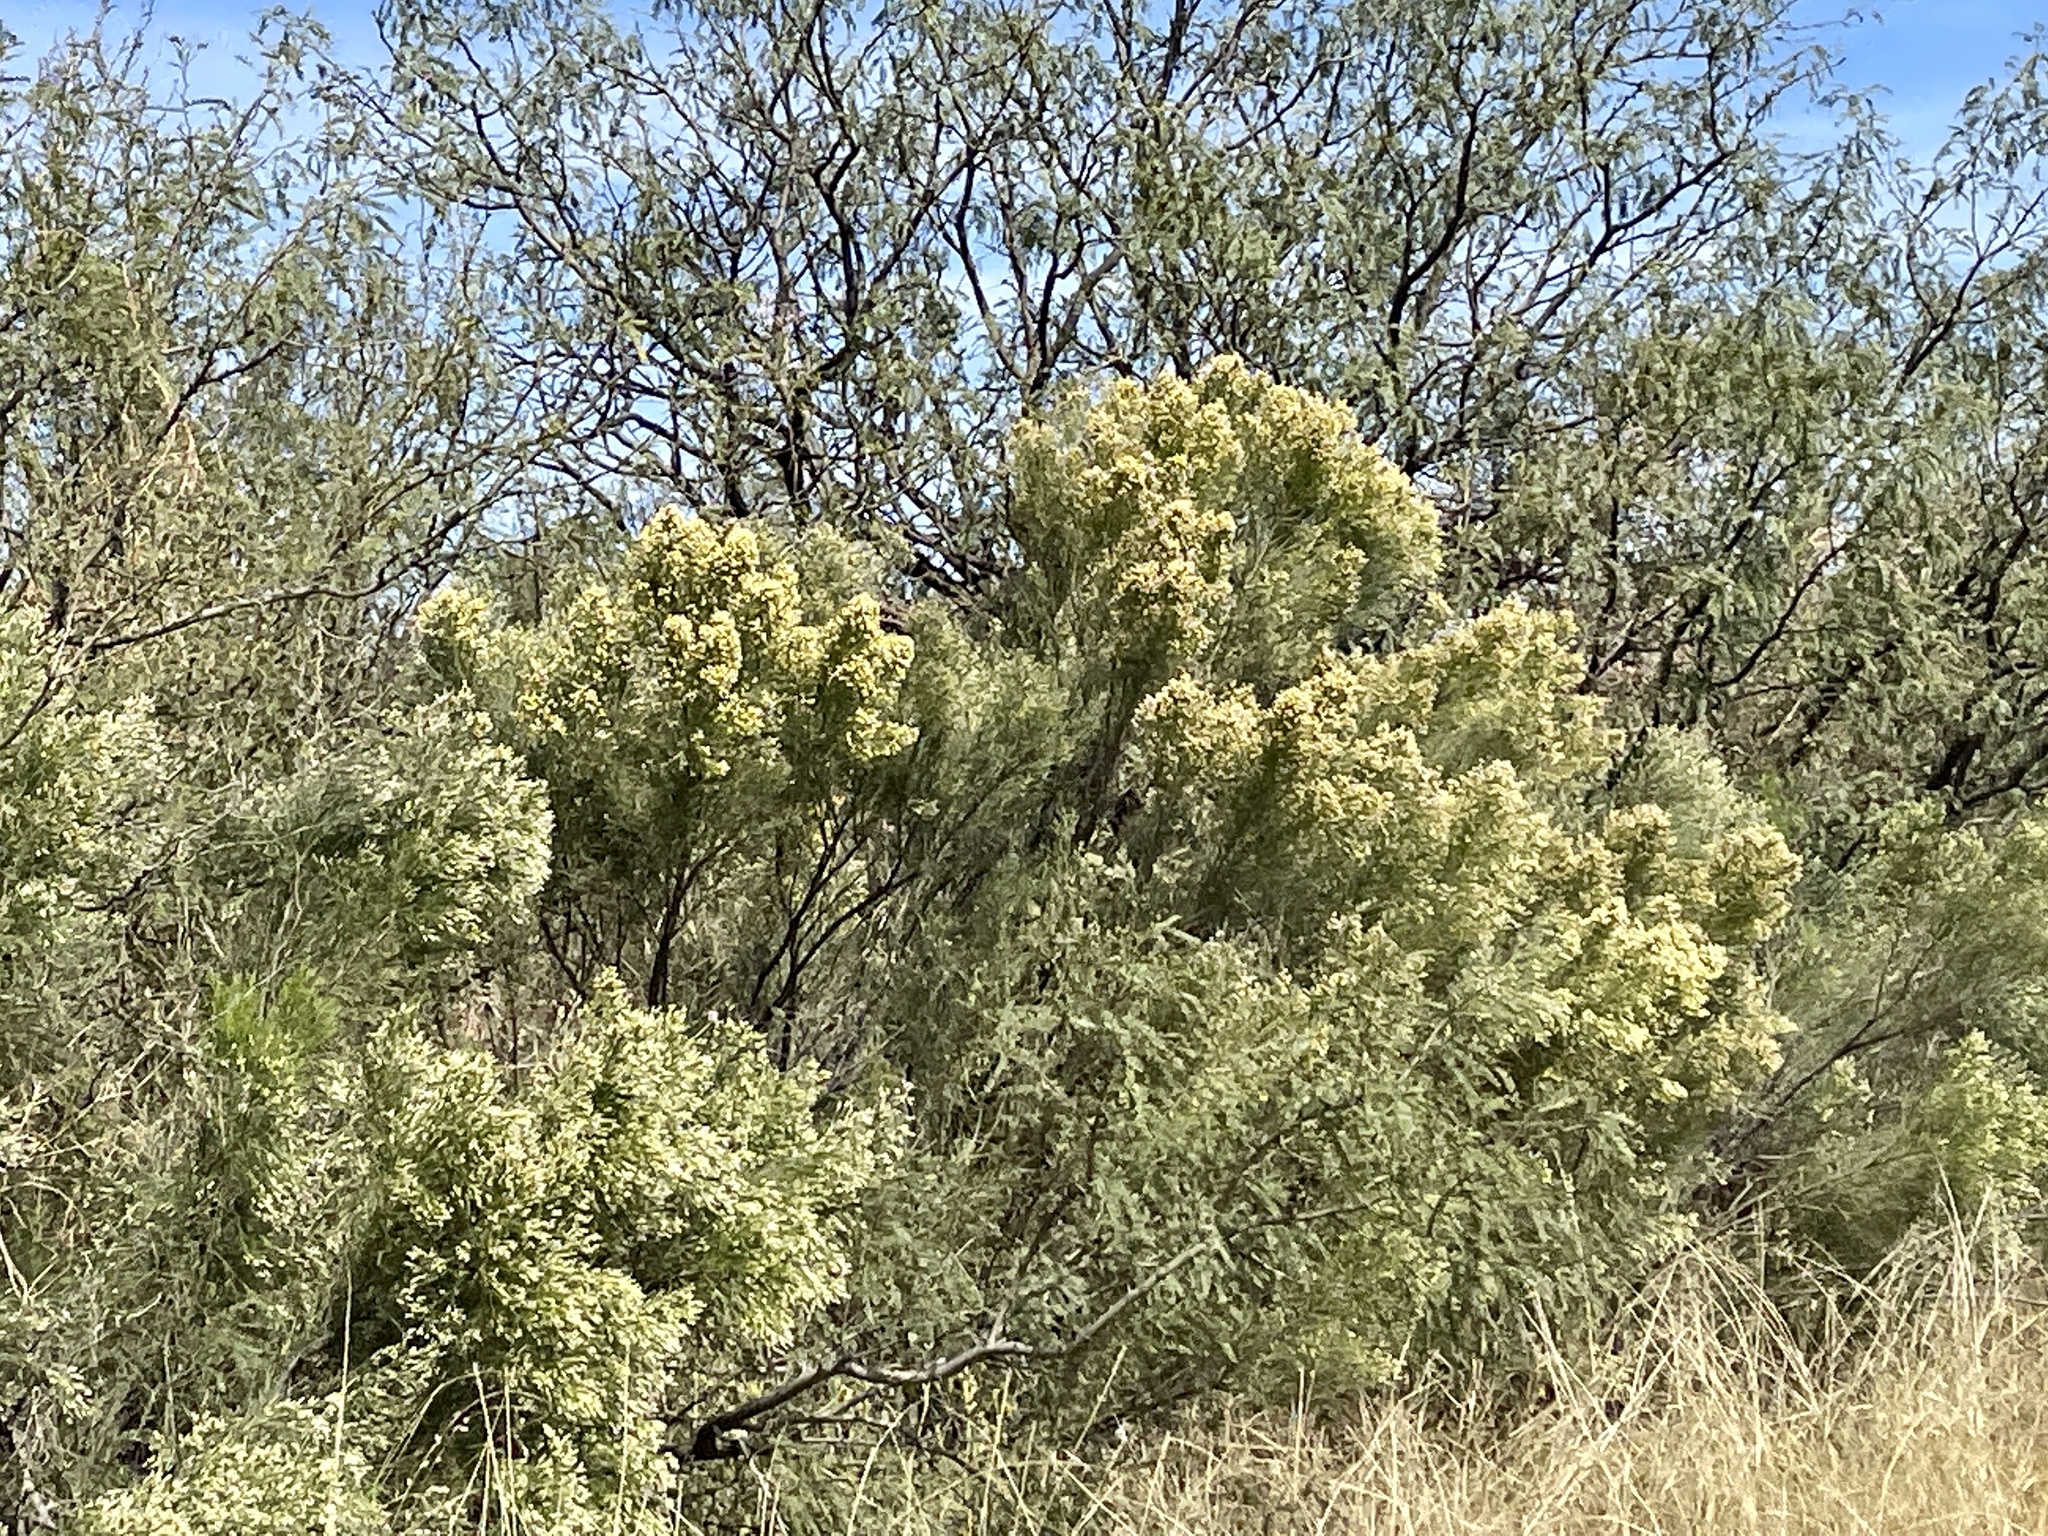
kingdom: Plantae
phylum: Tracheophyta
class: Magnoliopsida
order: Asterales
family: Asteraceae
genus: Baccharis
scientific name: Baccharis sarothroides
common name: Desert-broom
